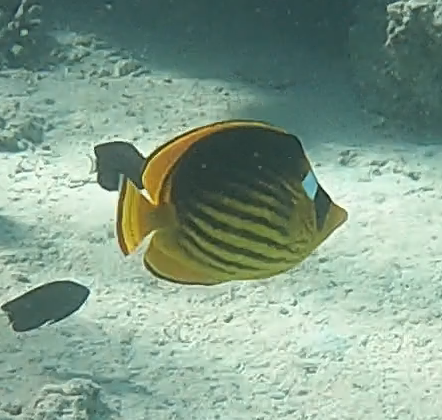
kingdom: Animalia
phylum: Chordata
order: Perciformes
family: Chaetodontidae
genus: Chaetodon
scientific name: Chaetodon fasciatus
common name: Diagonal butterflyfish
